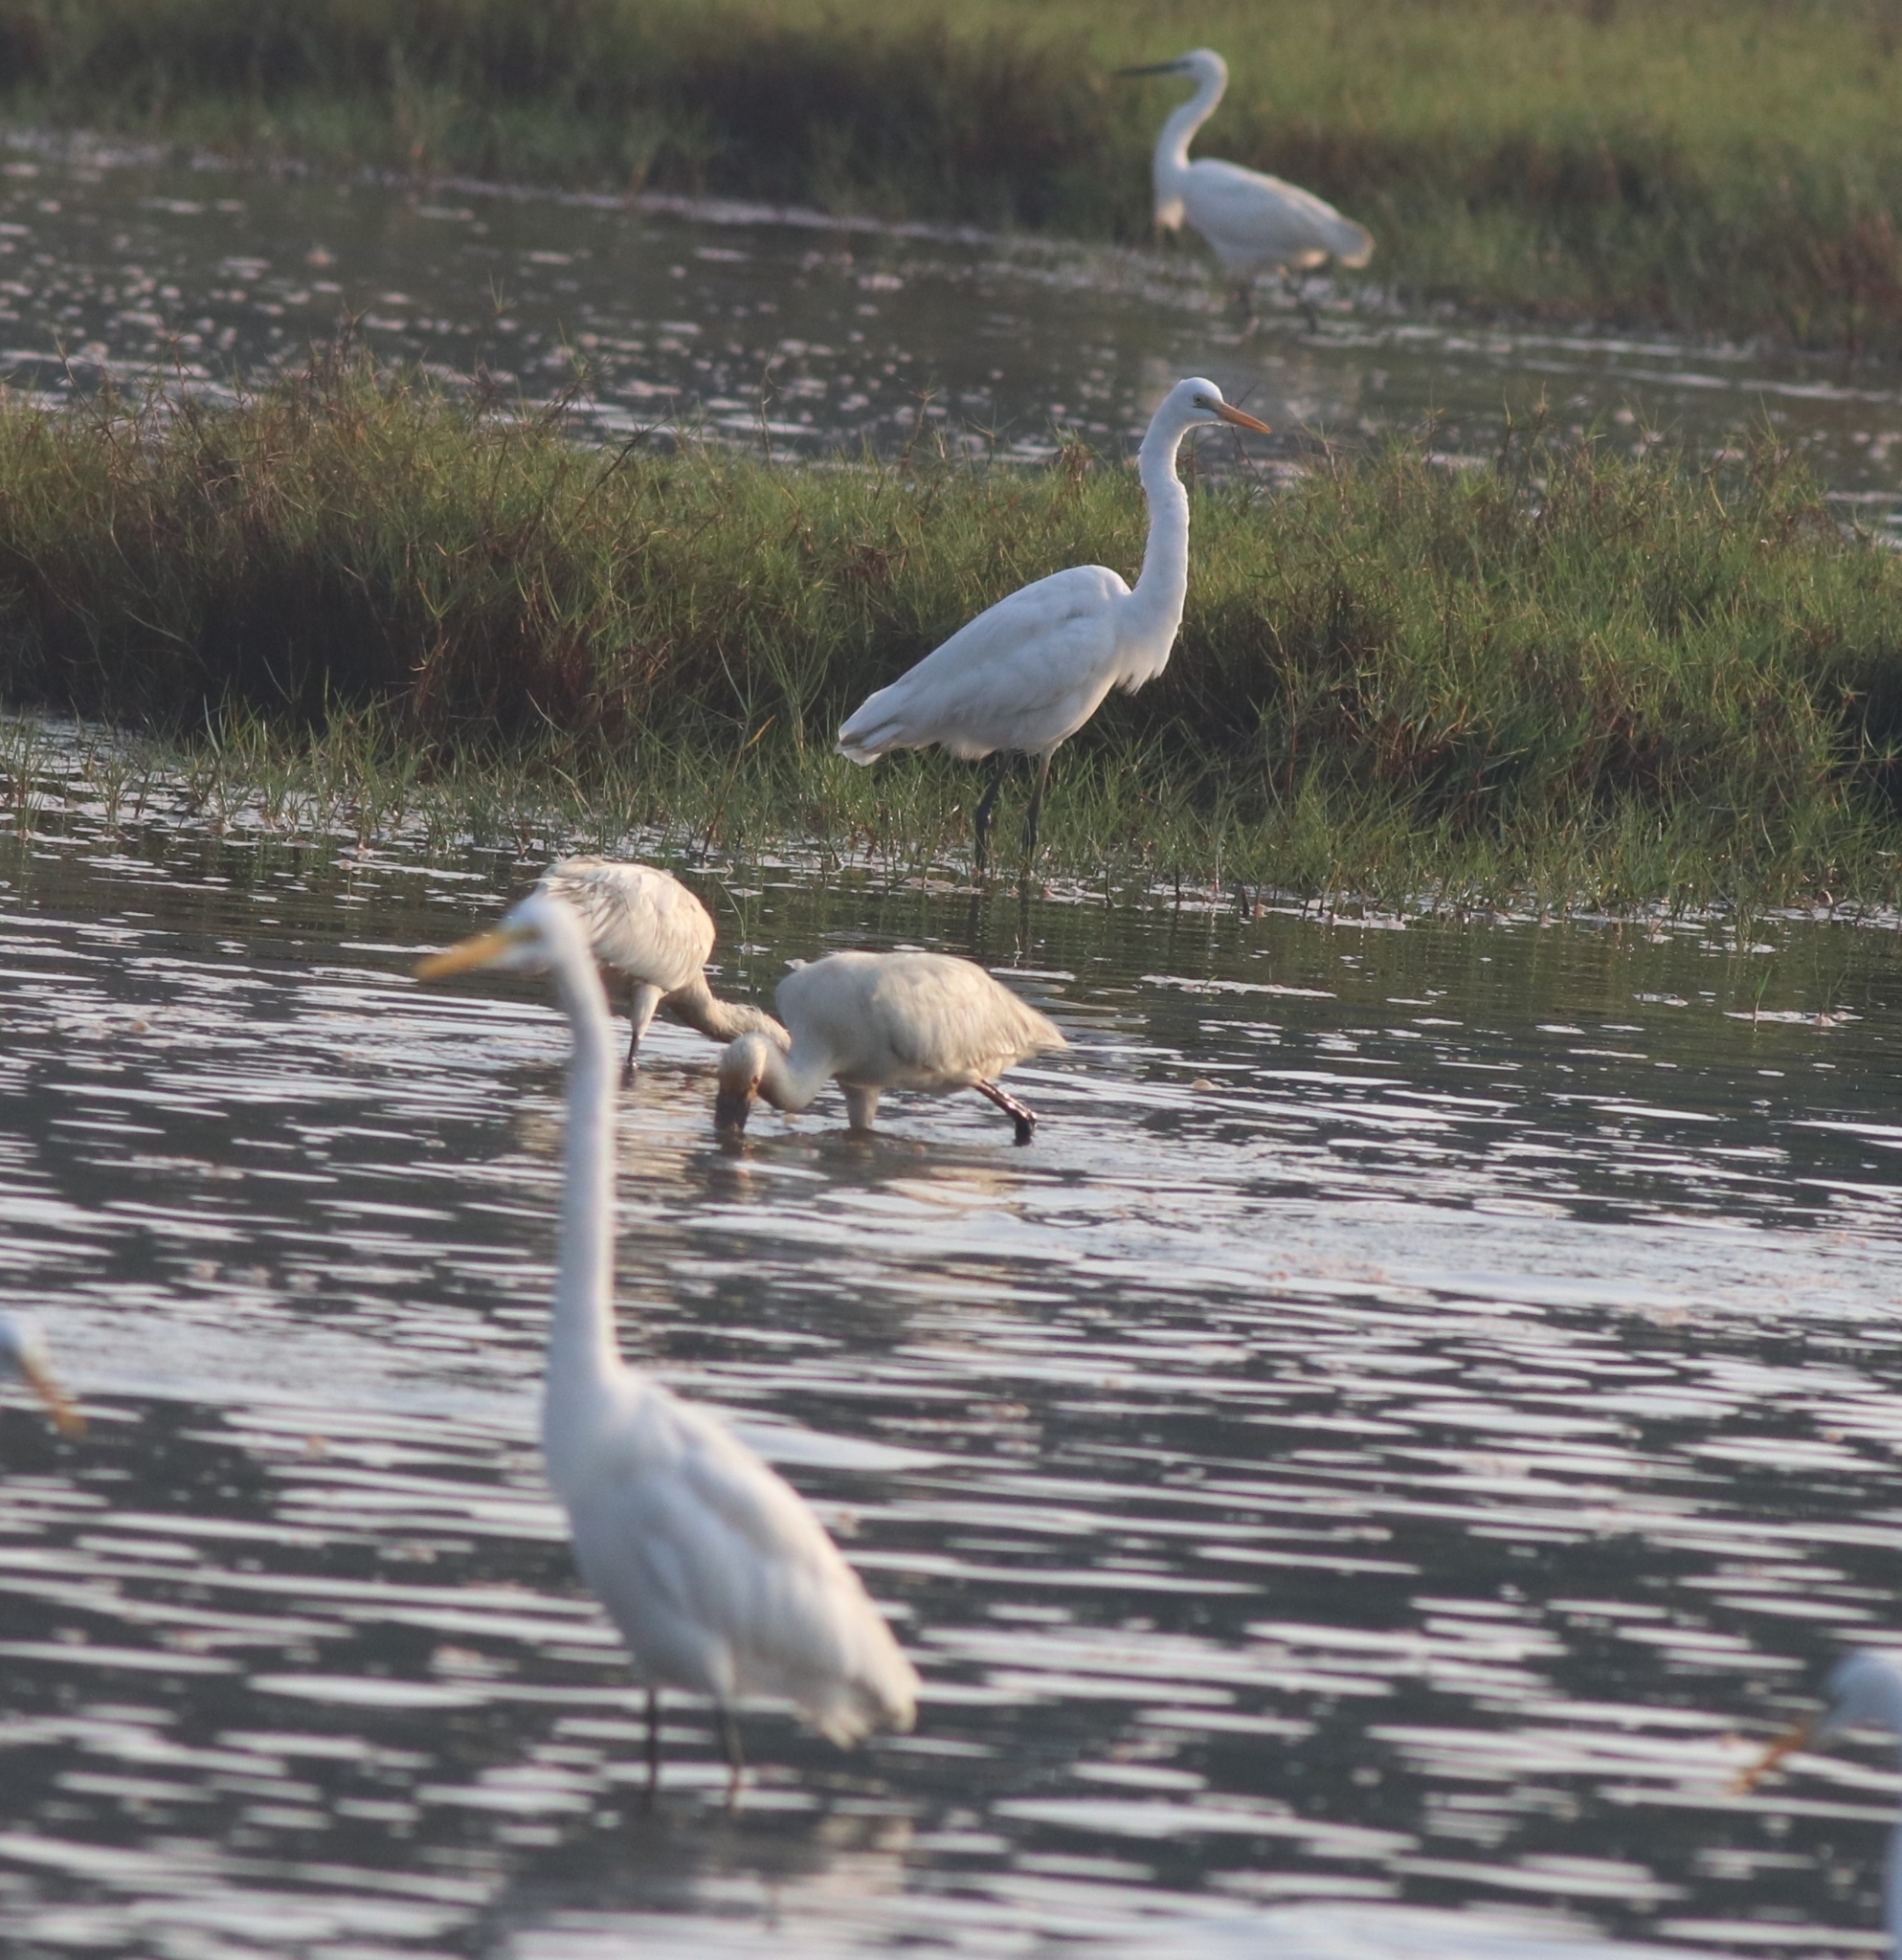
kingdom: Animalia
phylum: Chordata
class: Aves
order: Pelecaniformes
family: Ardeidae
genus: Ardea
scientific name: Ardea alba
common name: Great egret
